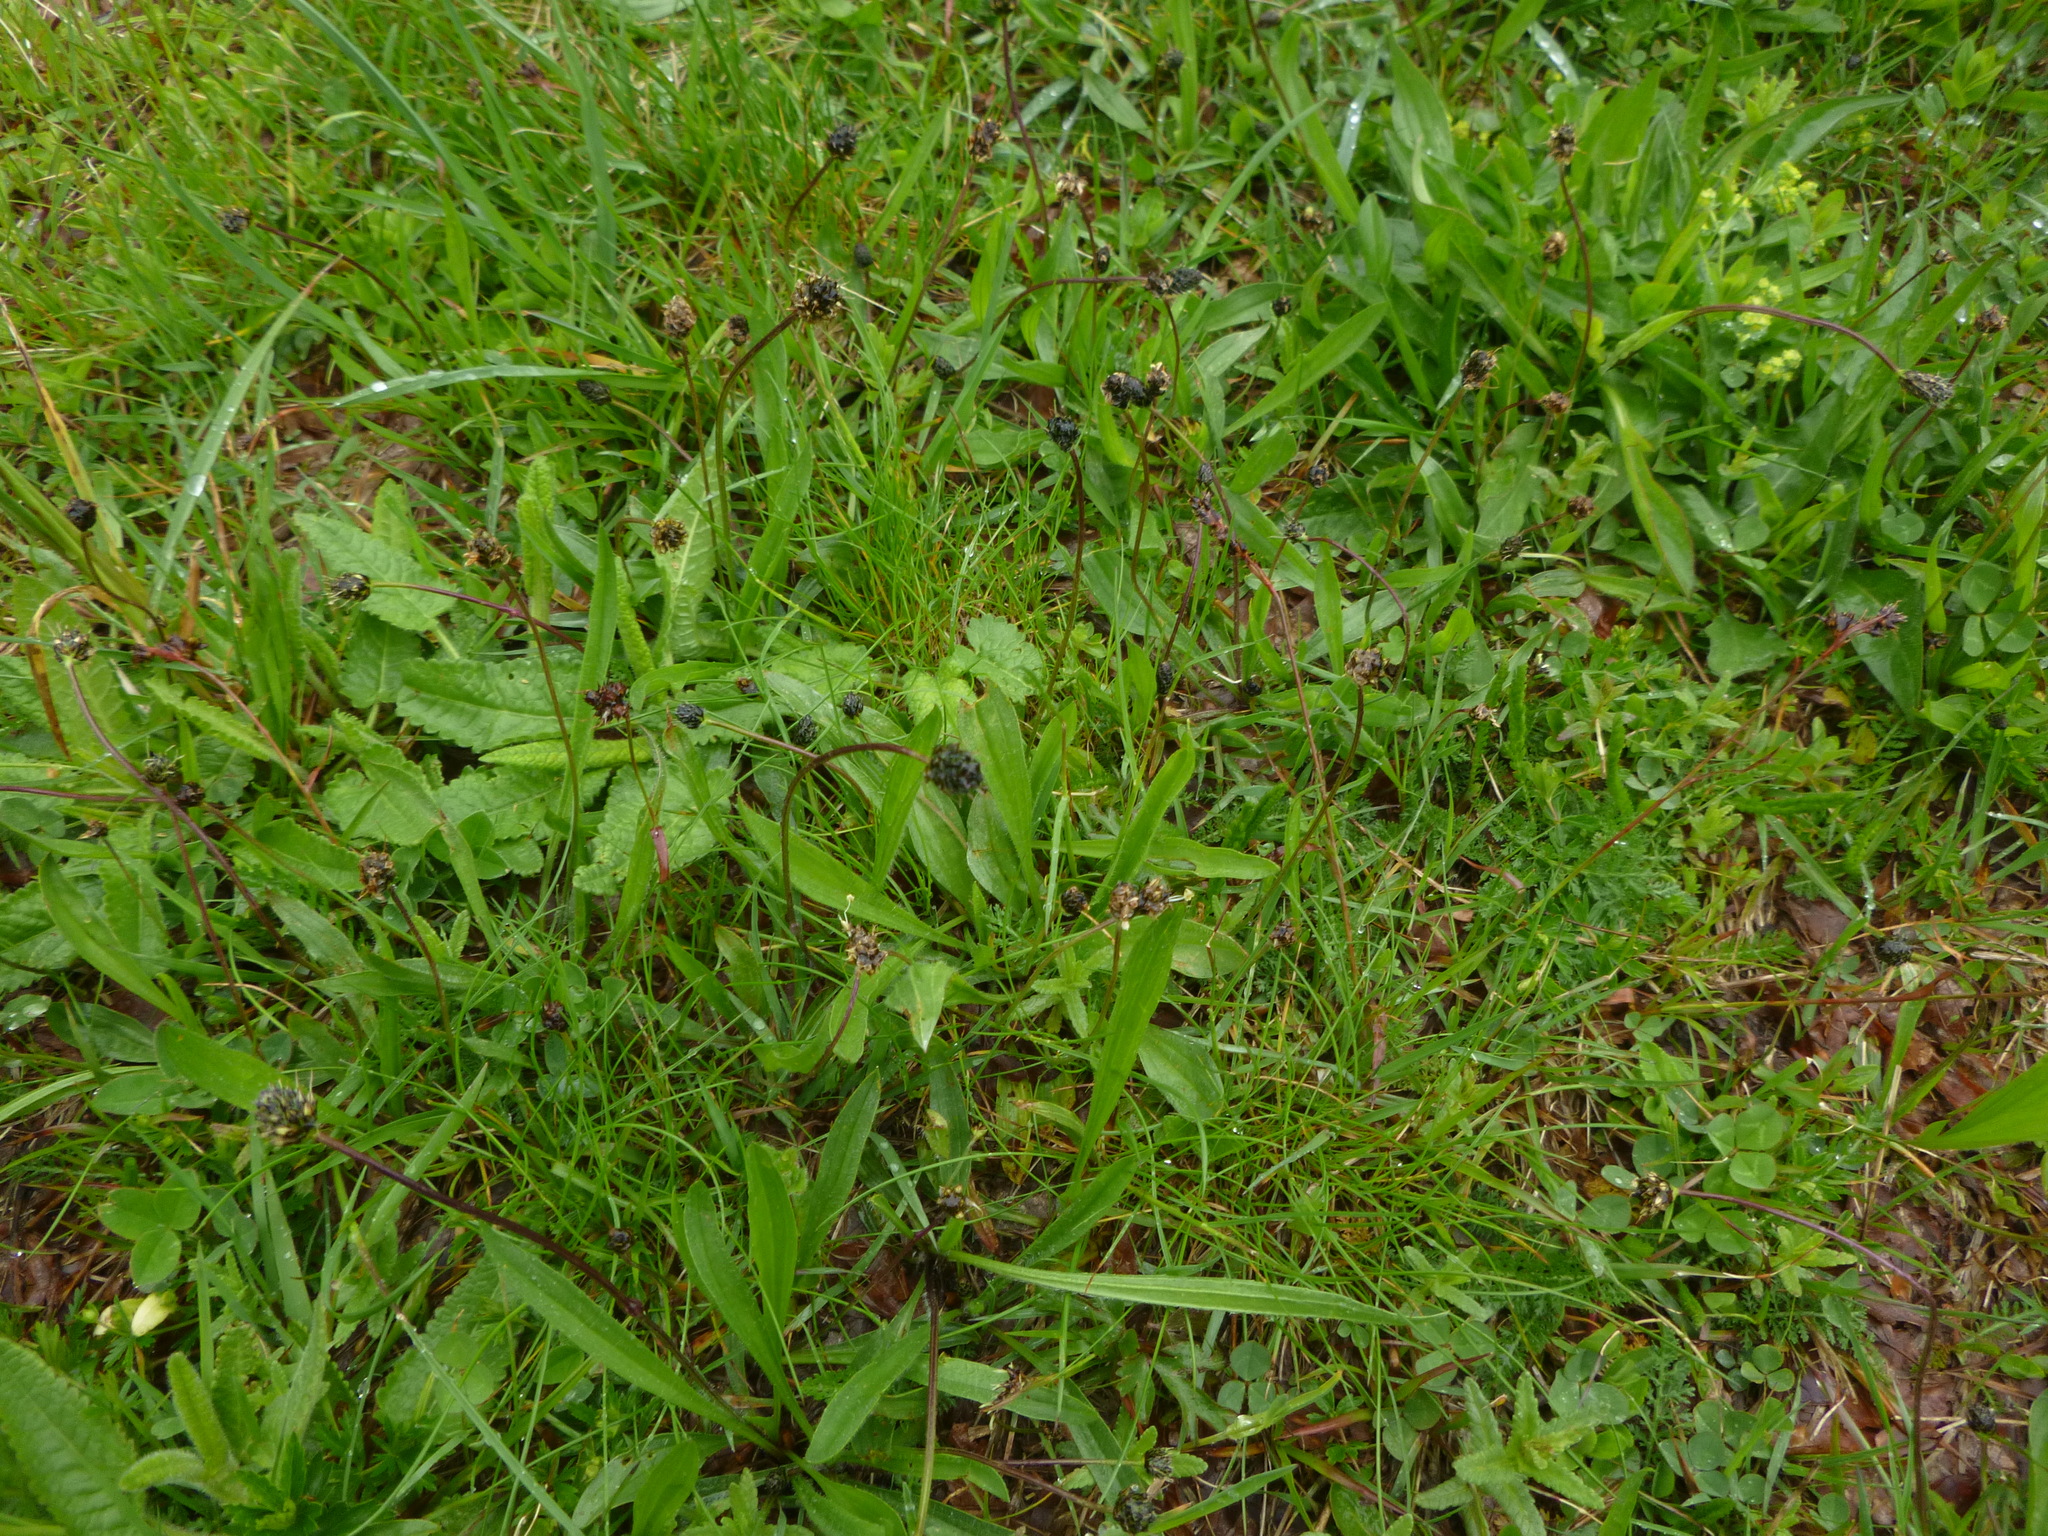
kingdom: Plantae
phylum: Tracheophyta
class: Magnoliopsida
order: Lamiales
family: Plantaginaceae
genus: Plantago
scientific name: Plantago lanceolata
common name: Ribwort plantain
